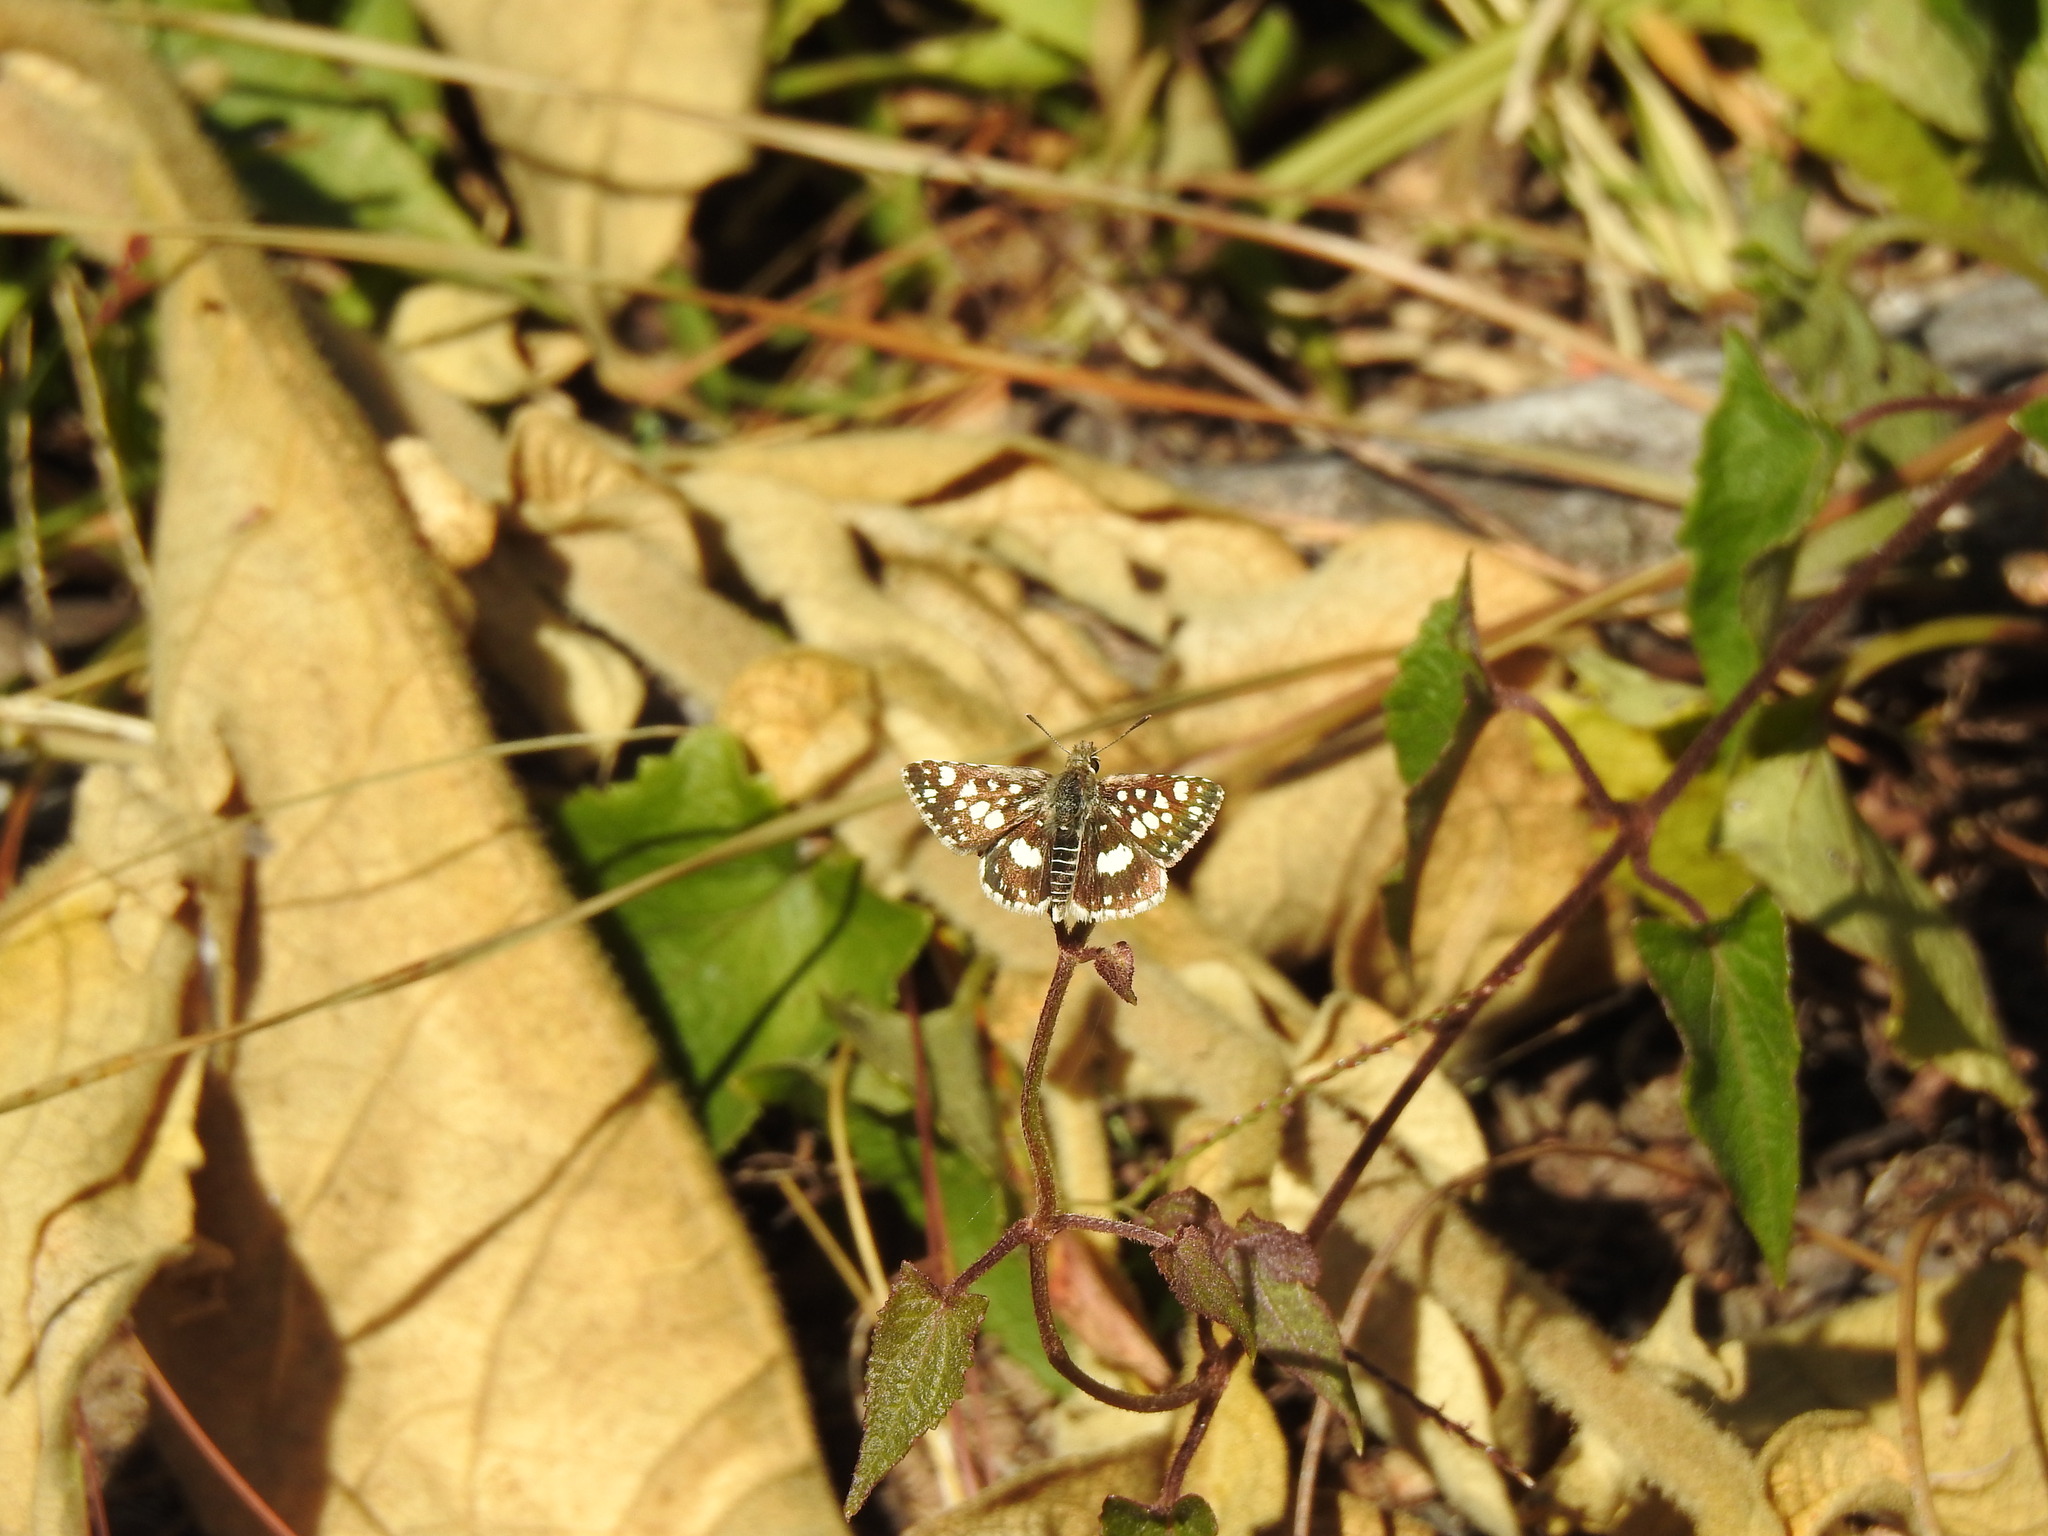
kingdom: Animalia
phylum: Arthropoda
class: Insecta
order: Lepidoptera
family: Hesperiidae
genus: Spialia
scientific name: Spialia spio
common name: Mountain sandman
